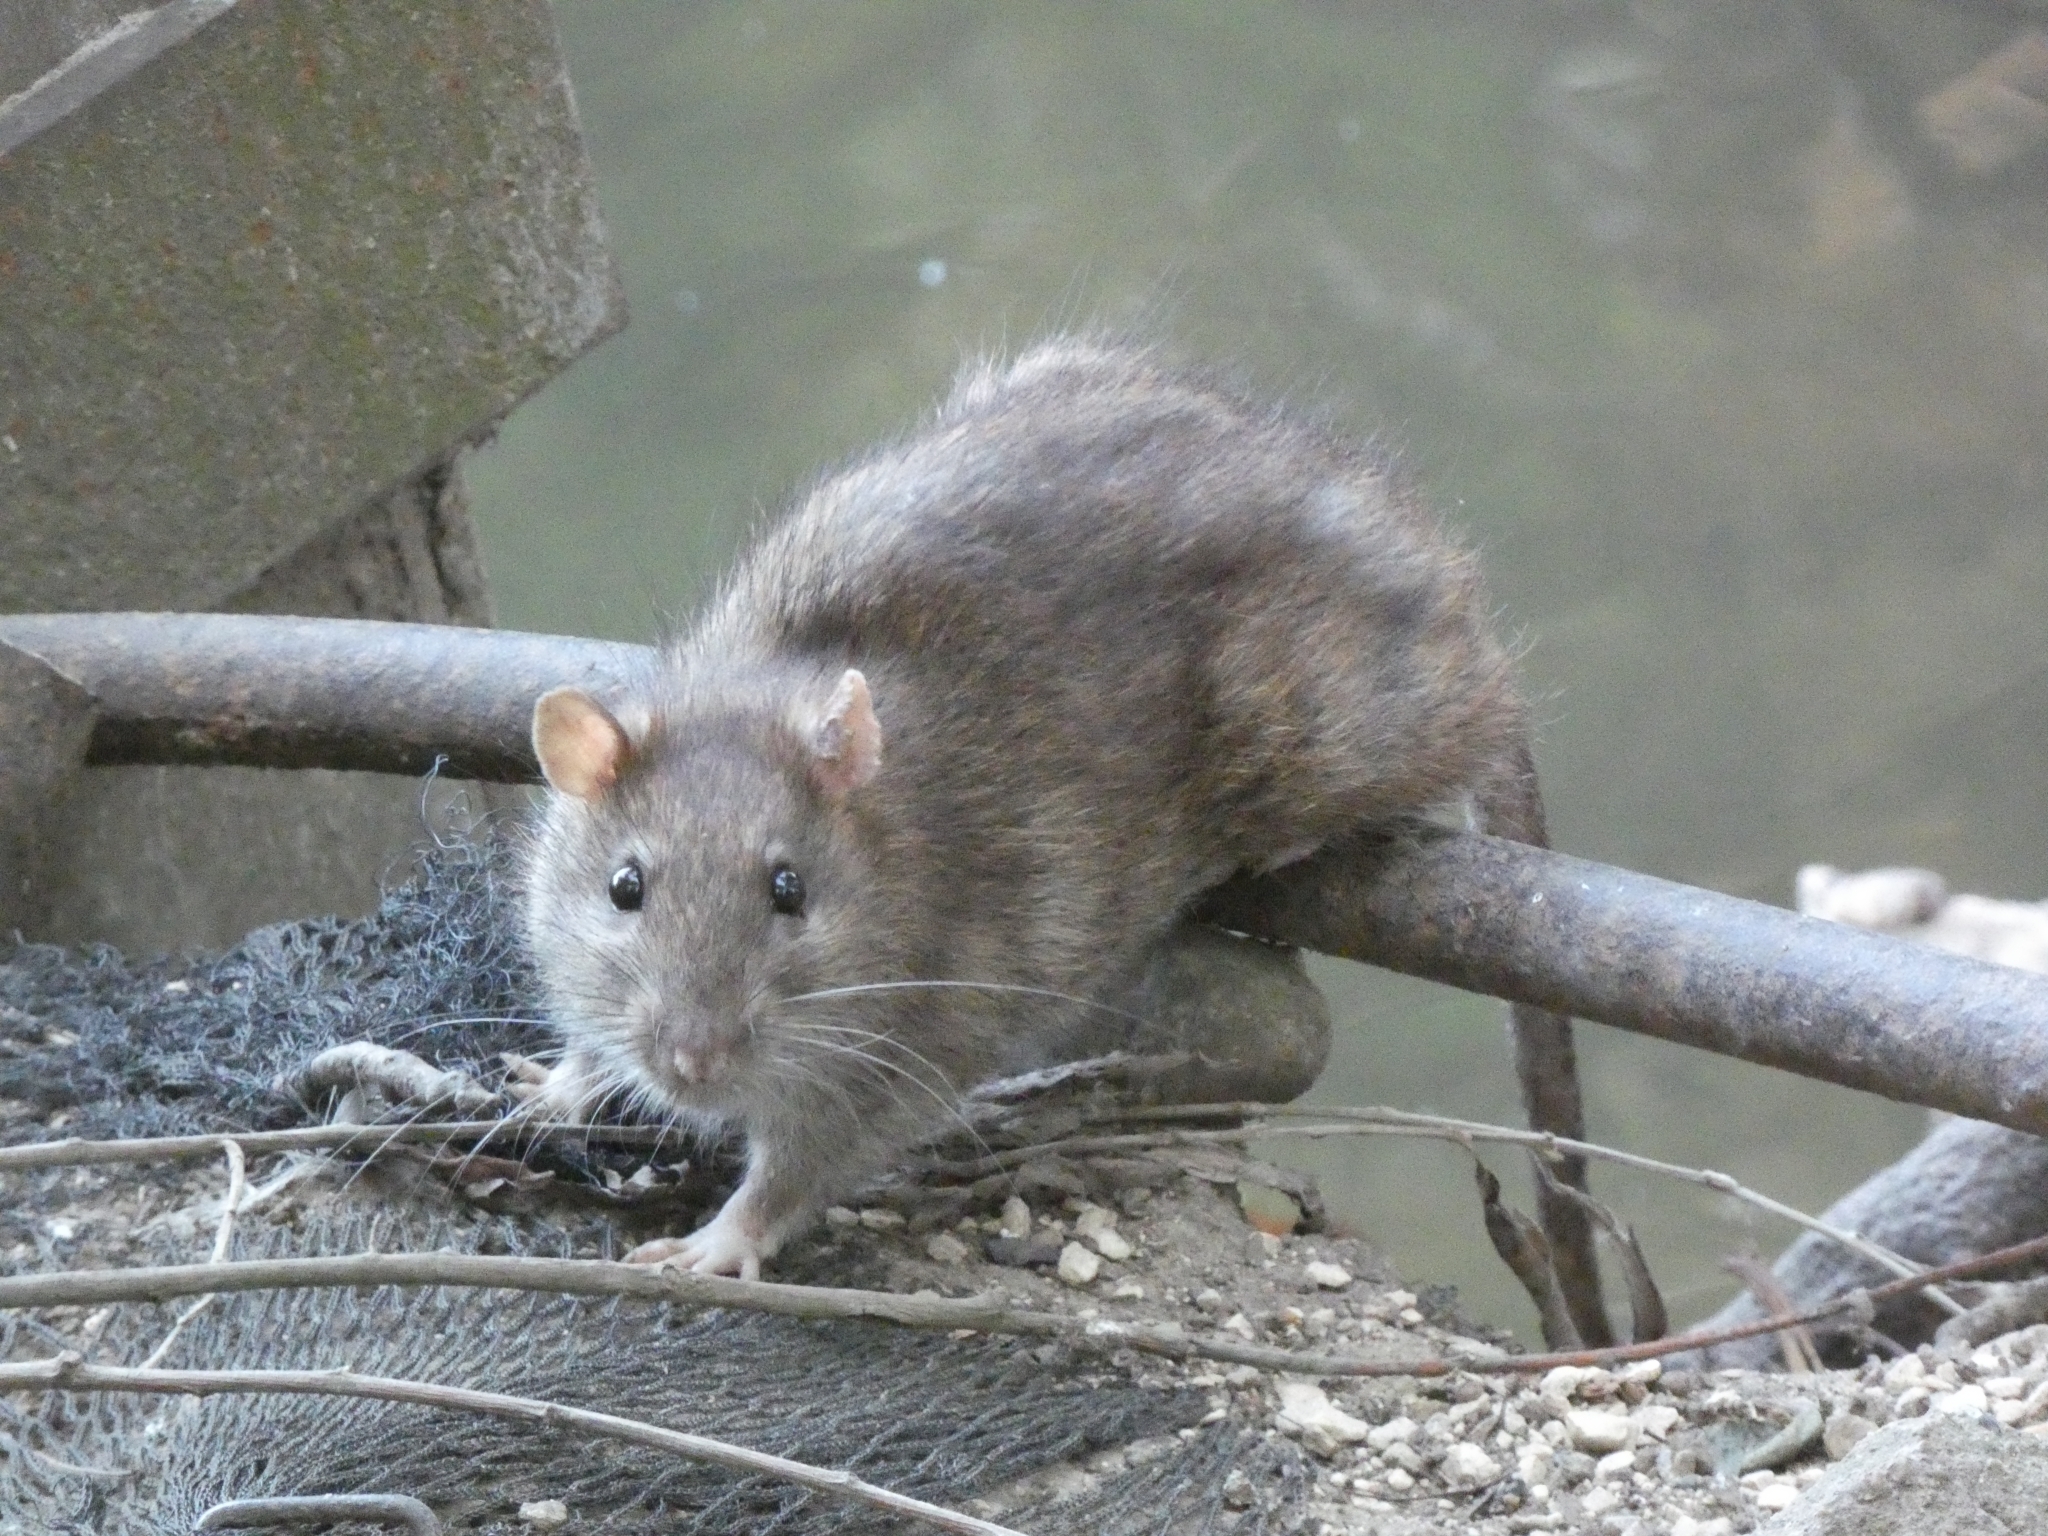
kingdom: Animalia
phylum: Chordata
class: Mammalia
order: Rodentia
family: Muridae
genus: Rattus
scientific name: Rattus norvegicus
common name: Brown rat
